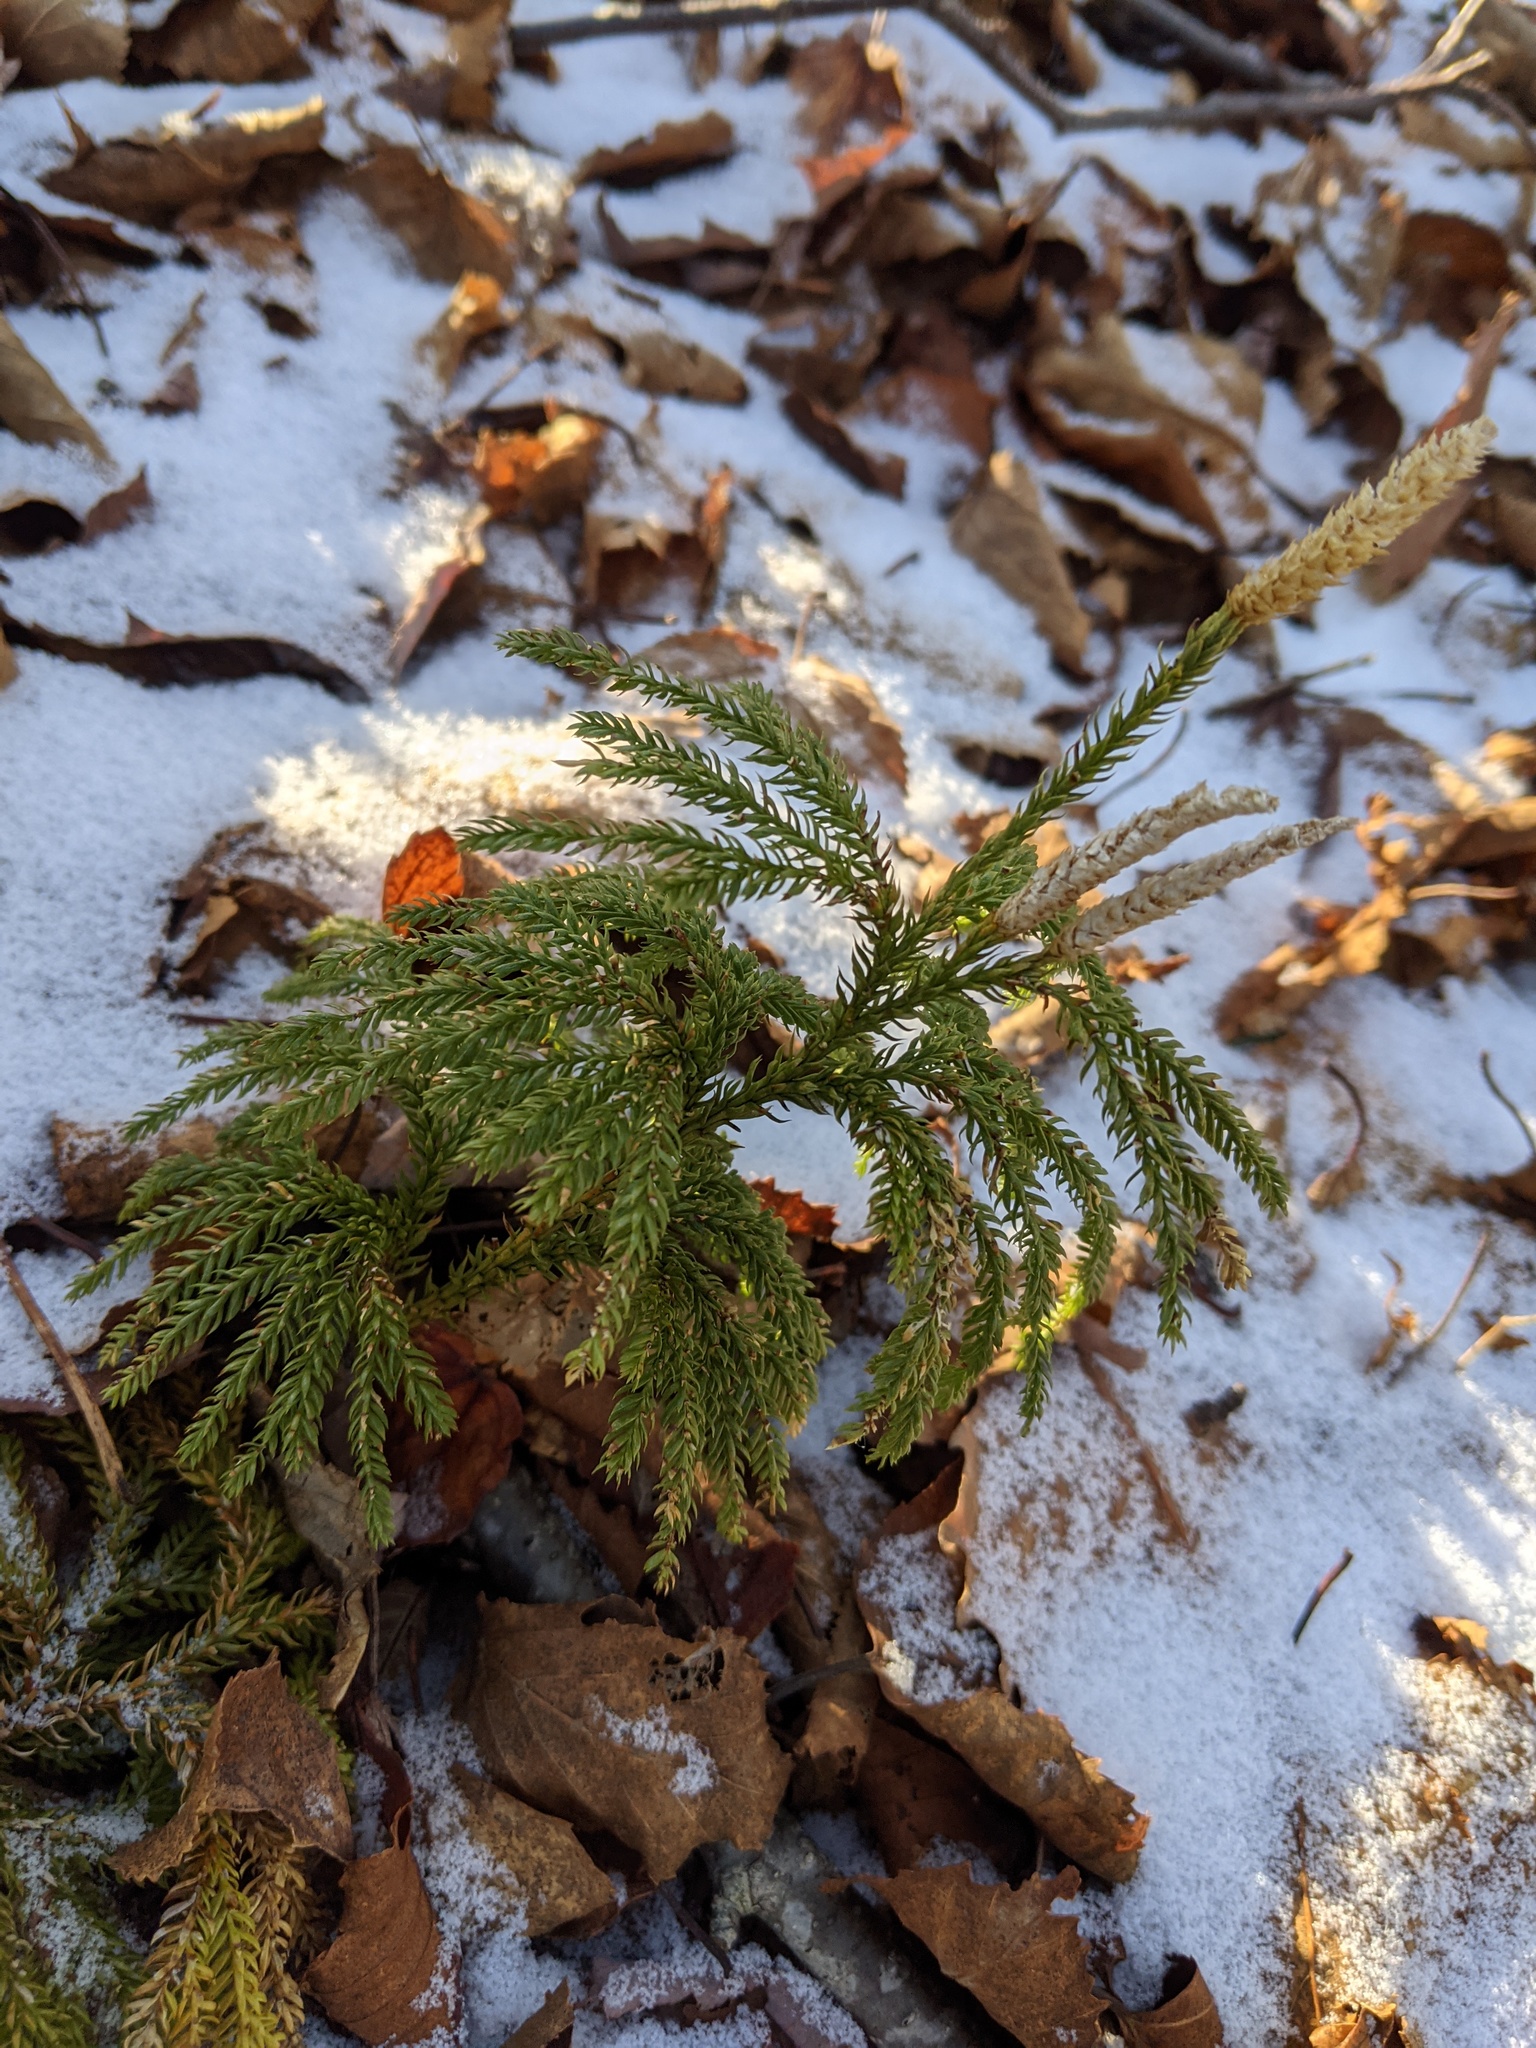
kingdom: Plantae
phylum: Tracheophyta
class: Lycopodiopsida
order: Lycopodiales
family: Lycopodiaceae
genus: Dendrolycopodium
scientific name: Dendrolycopodium dendroideum
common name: Northern tree-clubmoss
